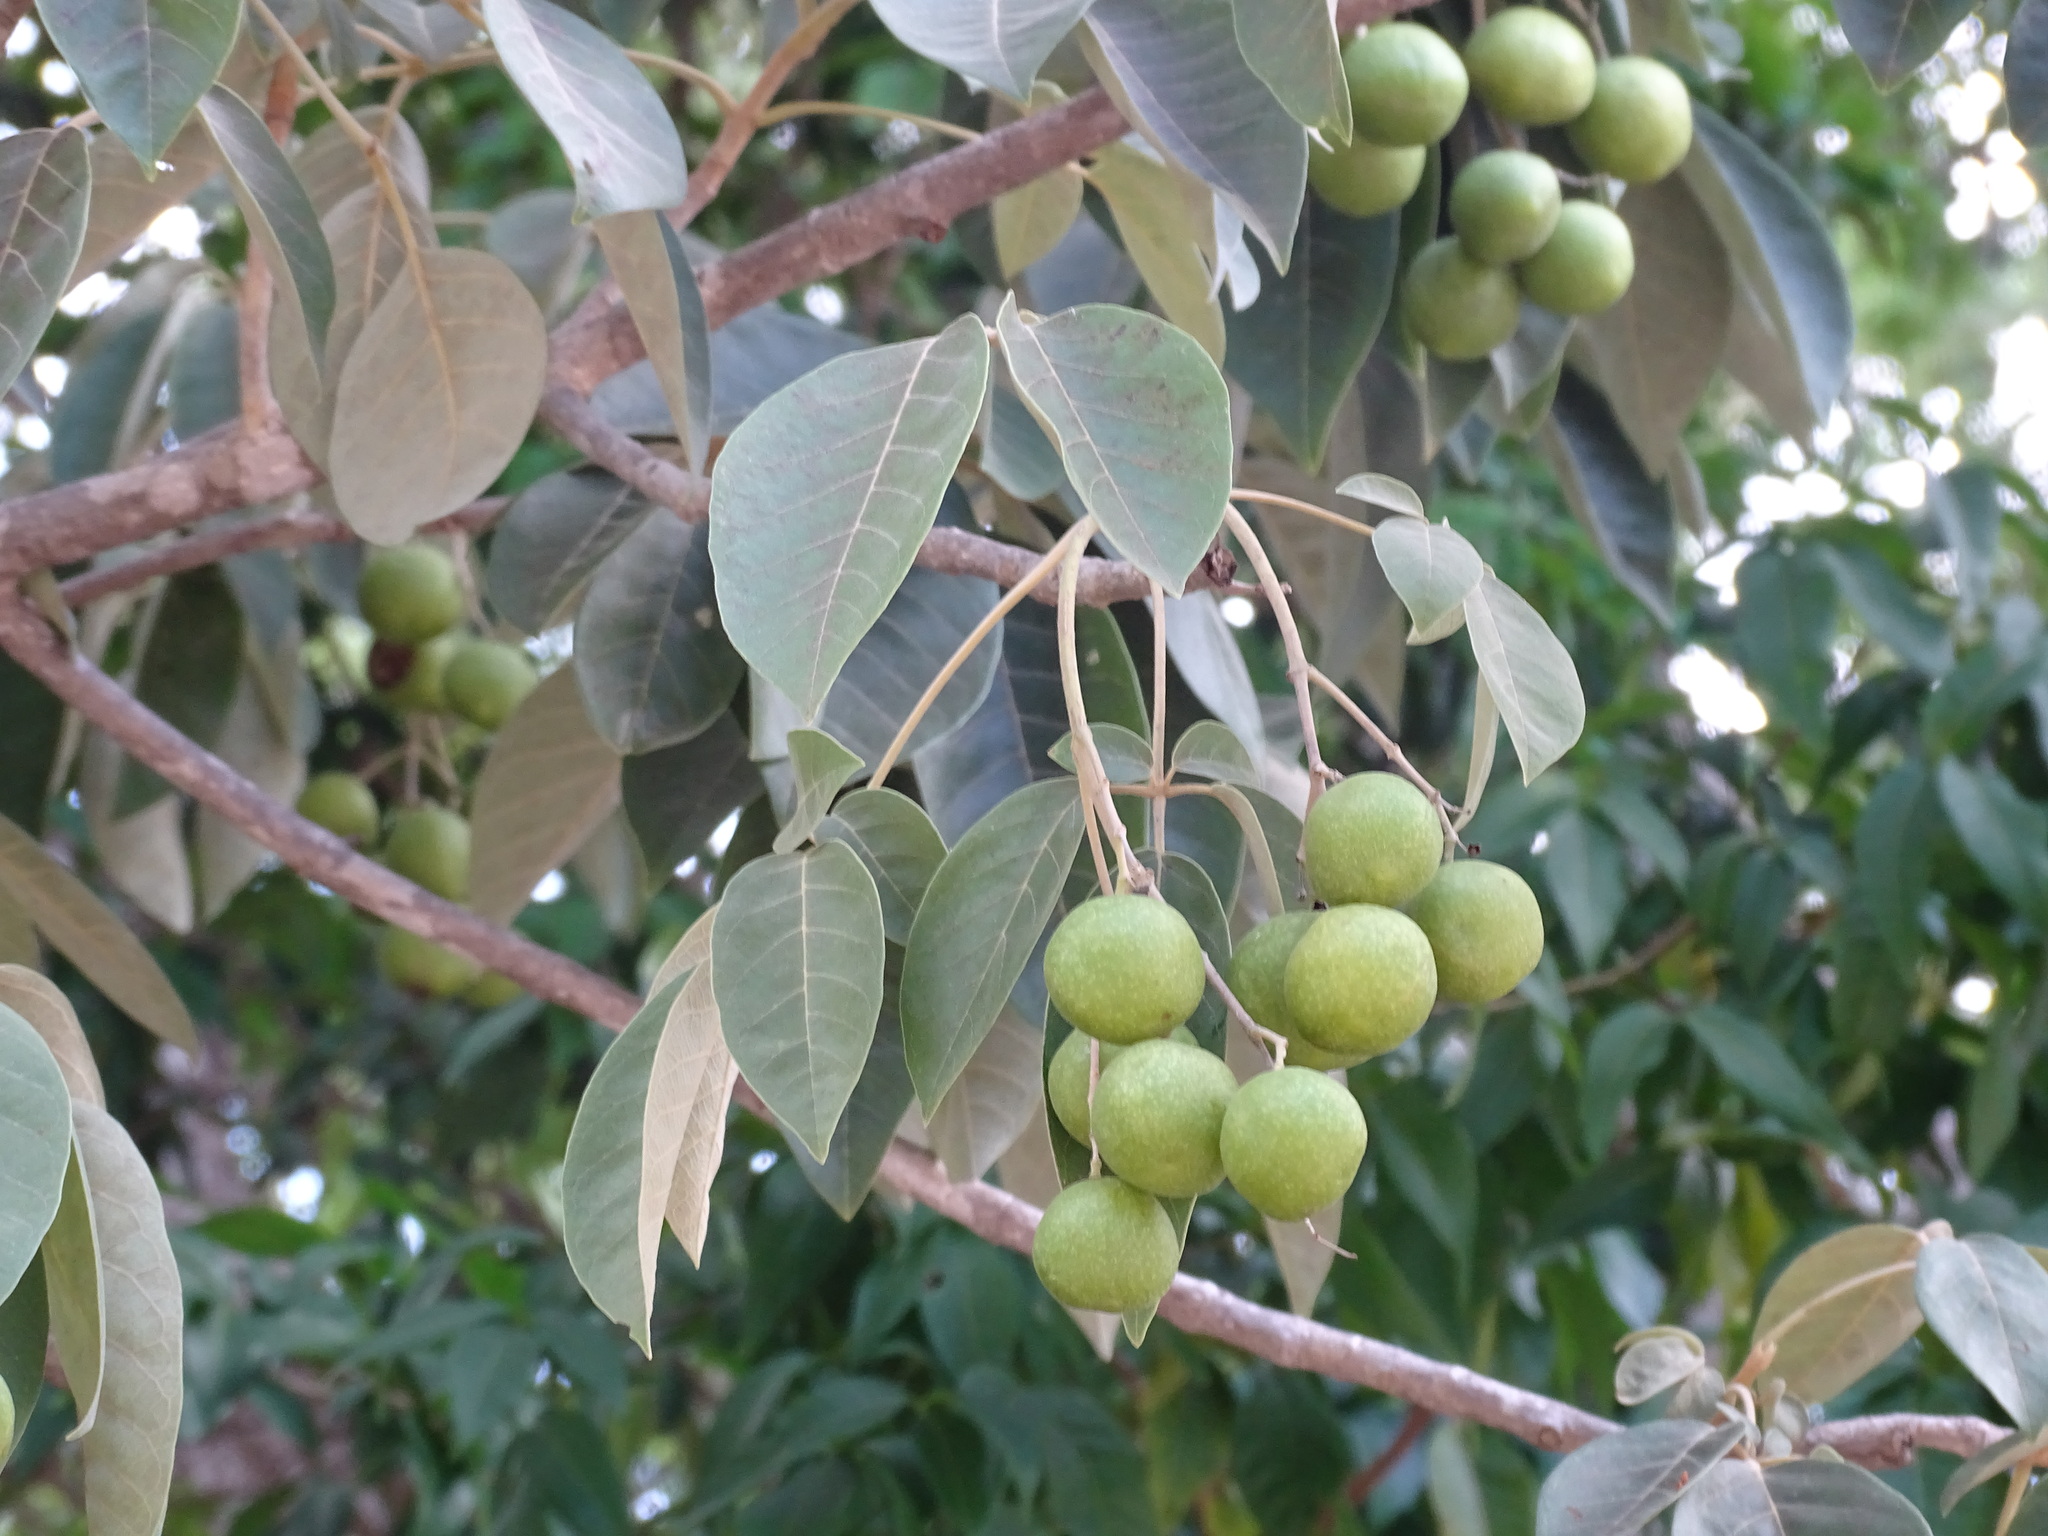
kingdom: Plantae
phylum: Tracheophyta
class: Magnoliopsida
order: Lamiales
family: Lamiaceae
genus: Vitex
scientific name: Vitex gaumeri
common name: Fiddlewood
